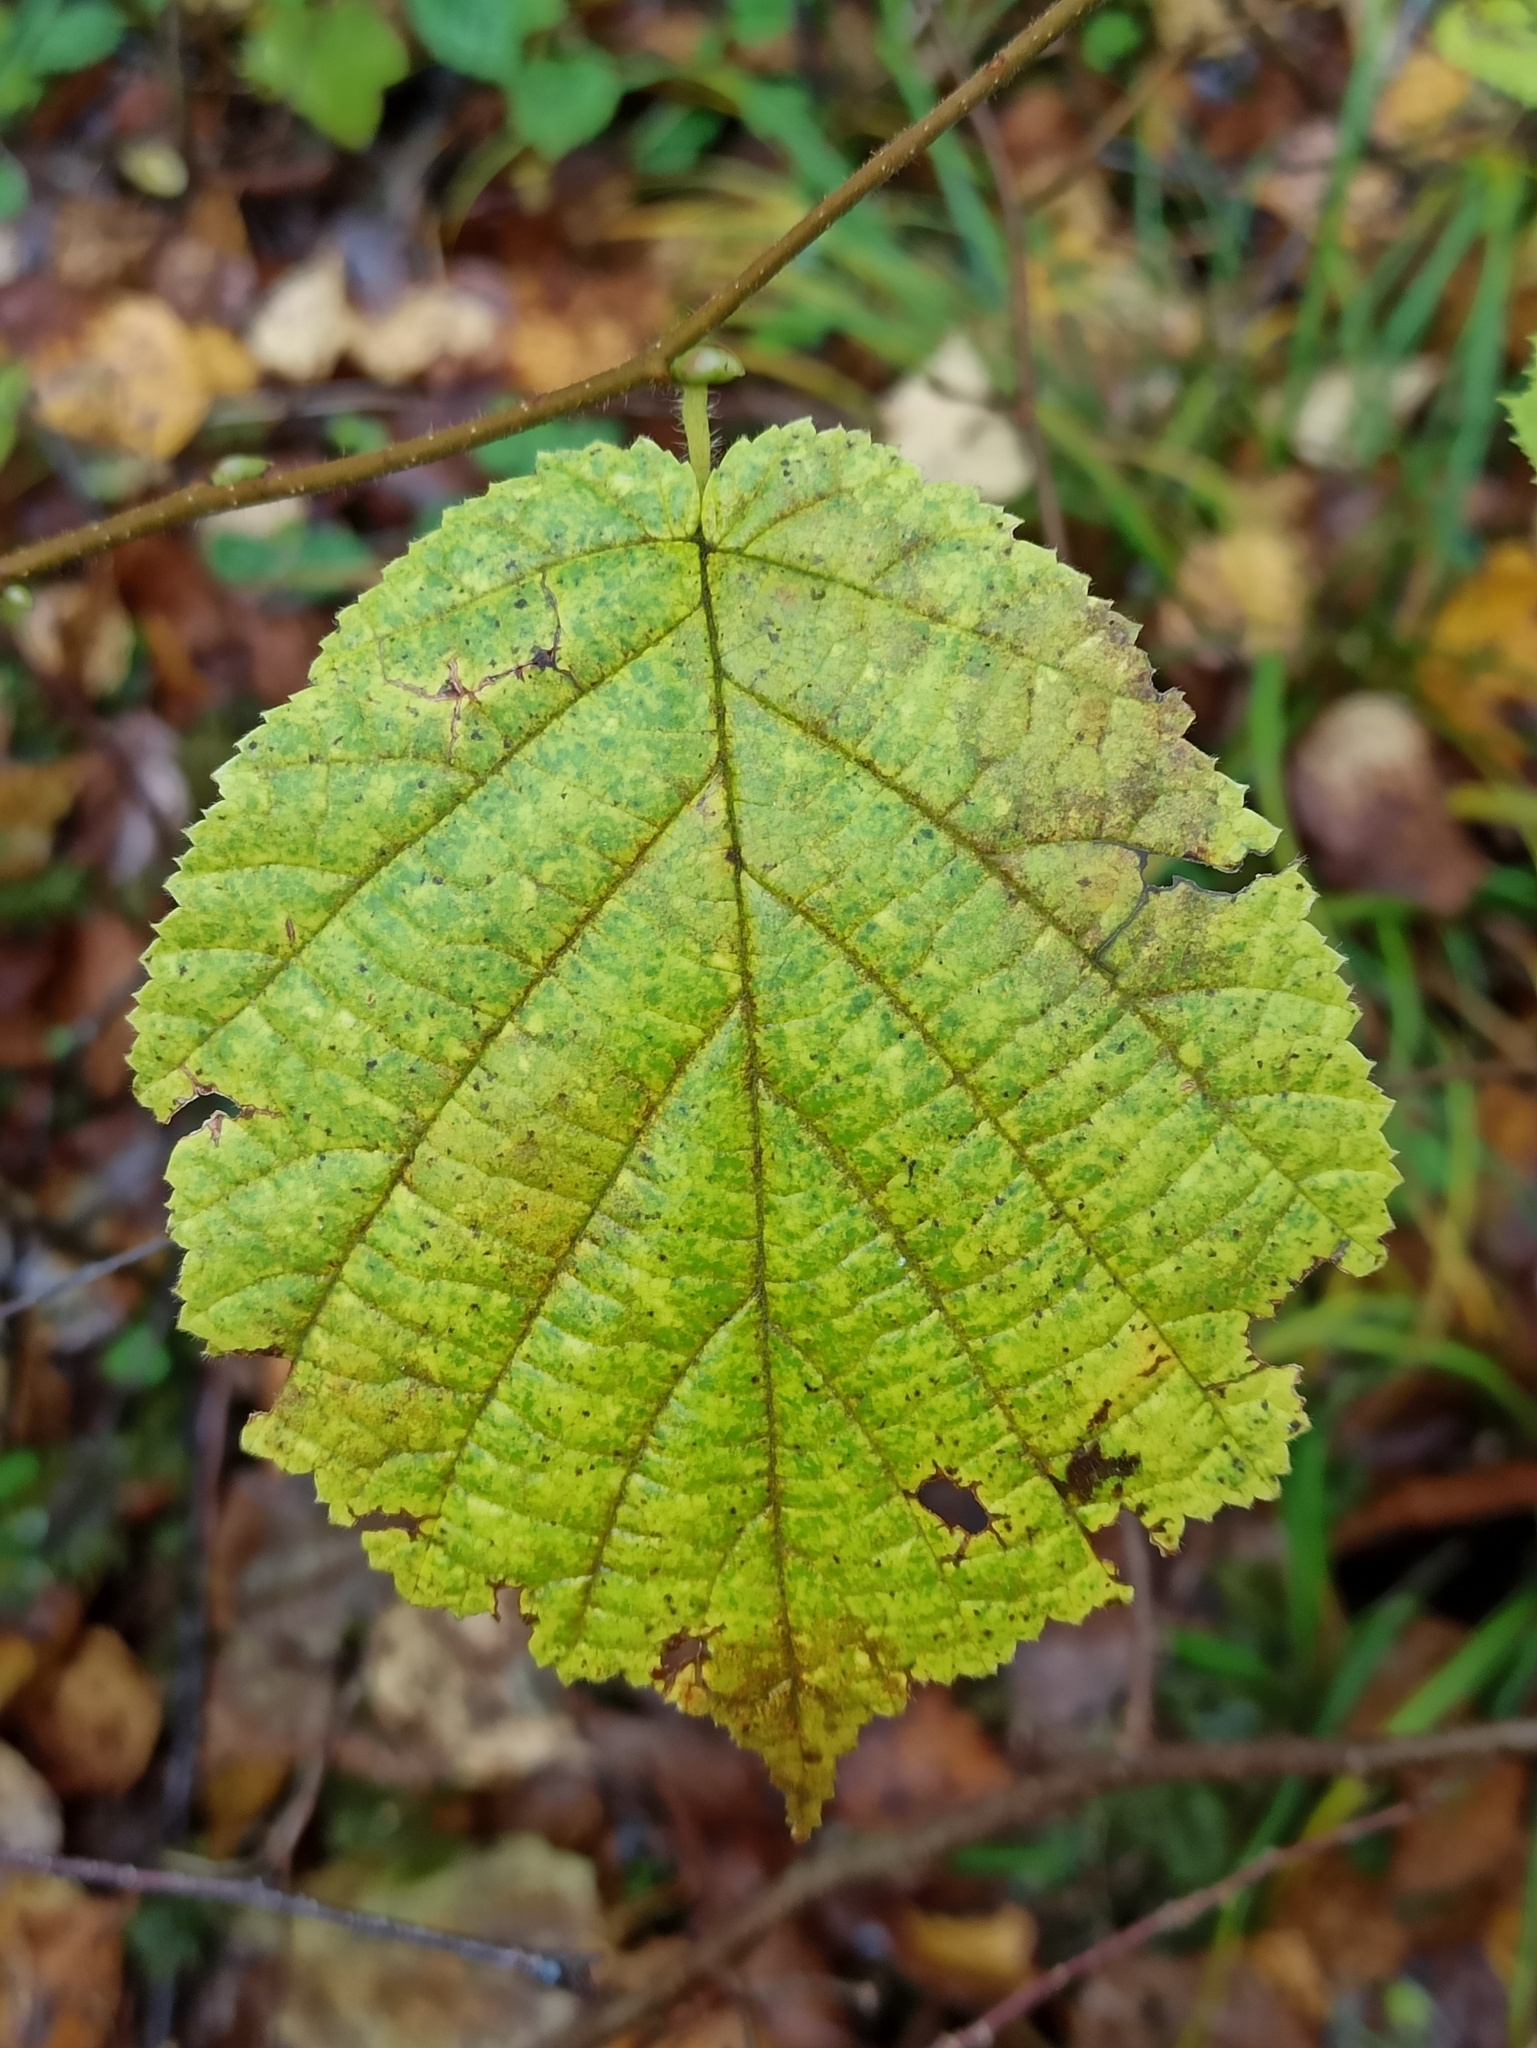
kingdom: Plantae
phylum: Tracheophyta
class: Magnoliopsida
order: Fagales
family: Betulaceae
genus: Corylus
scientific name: Corylus avellana
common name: European hazel
